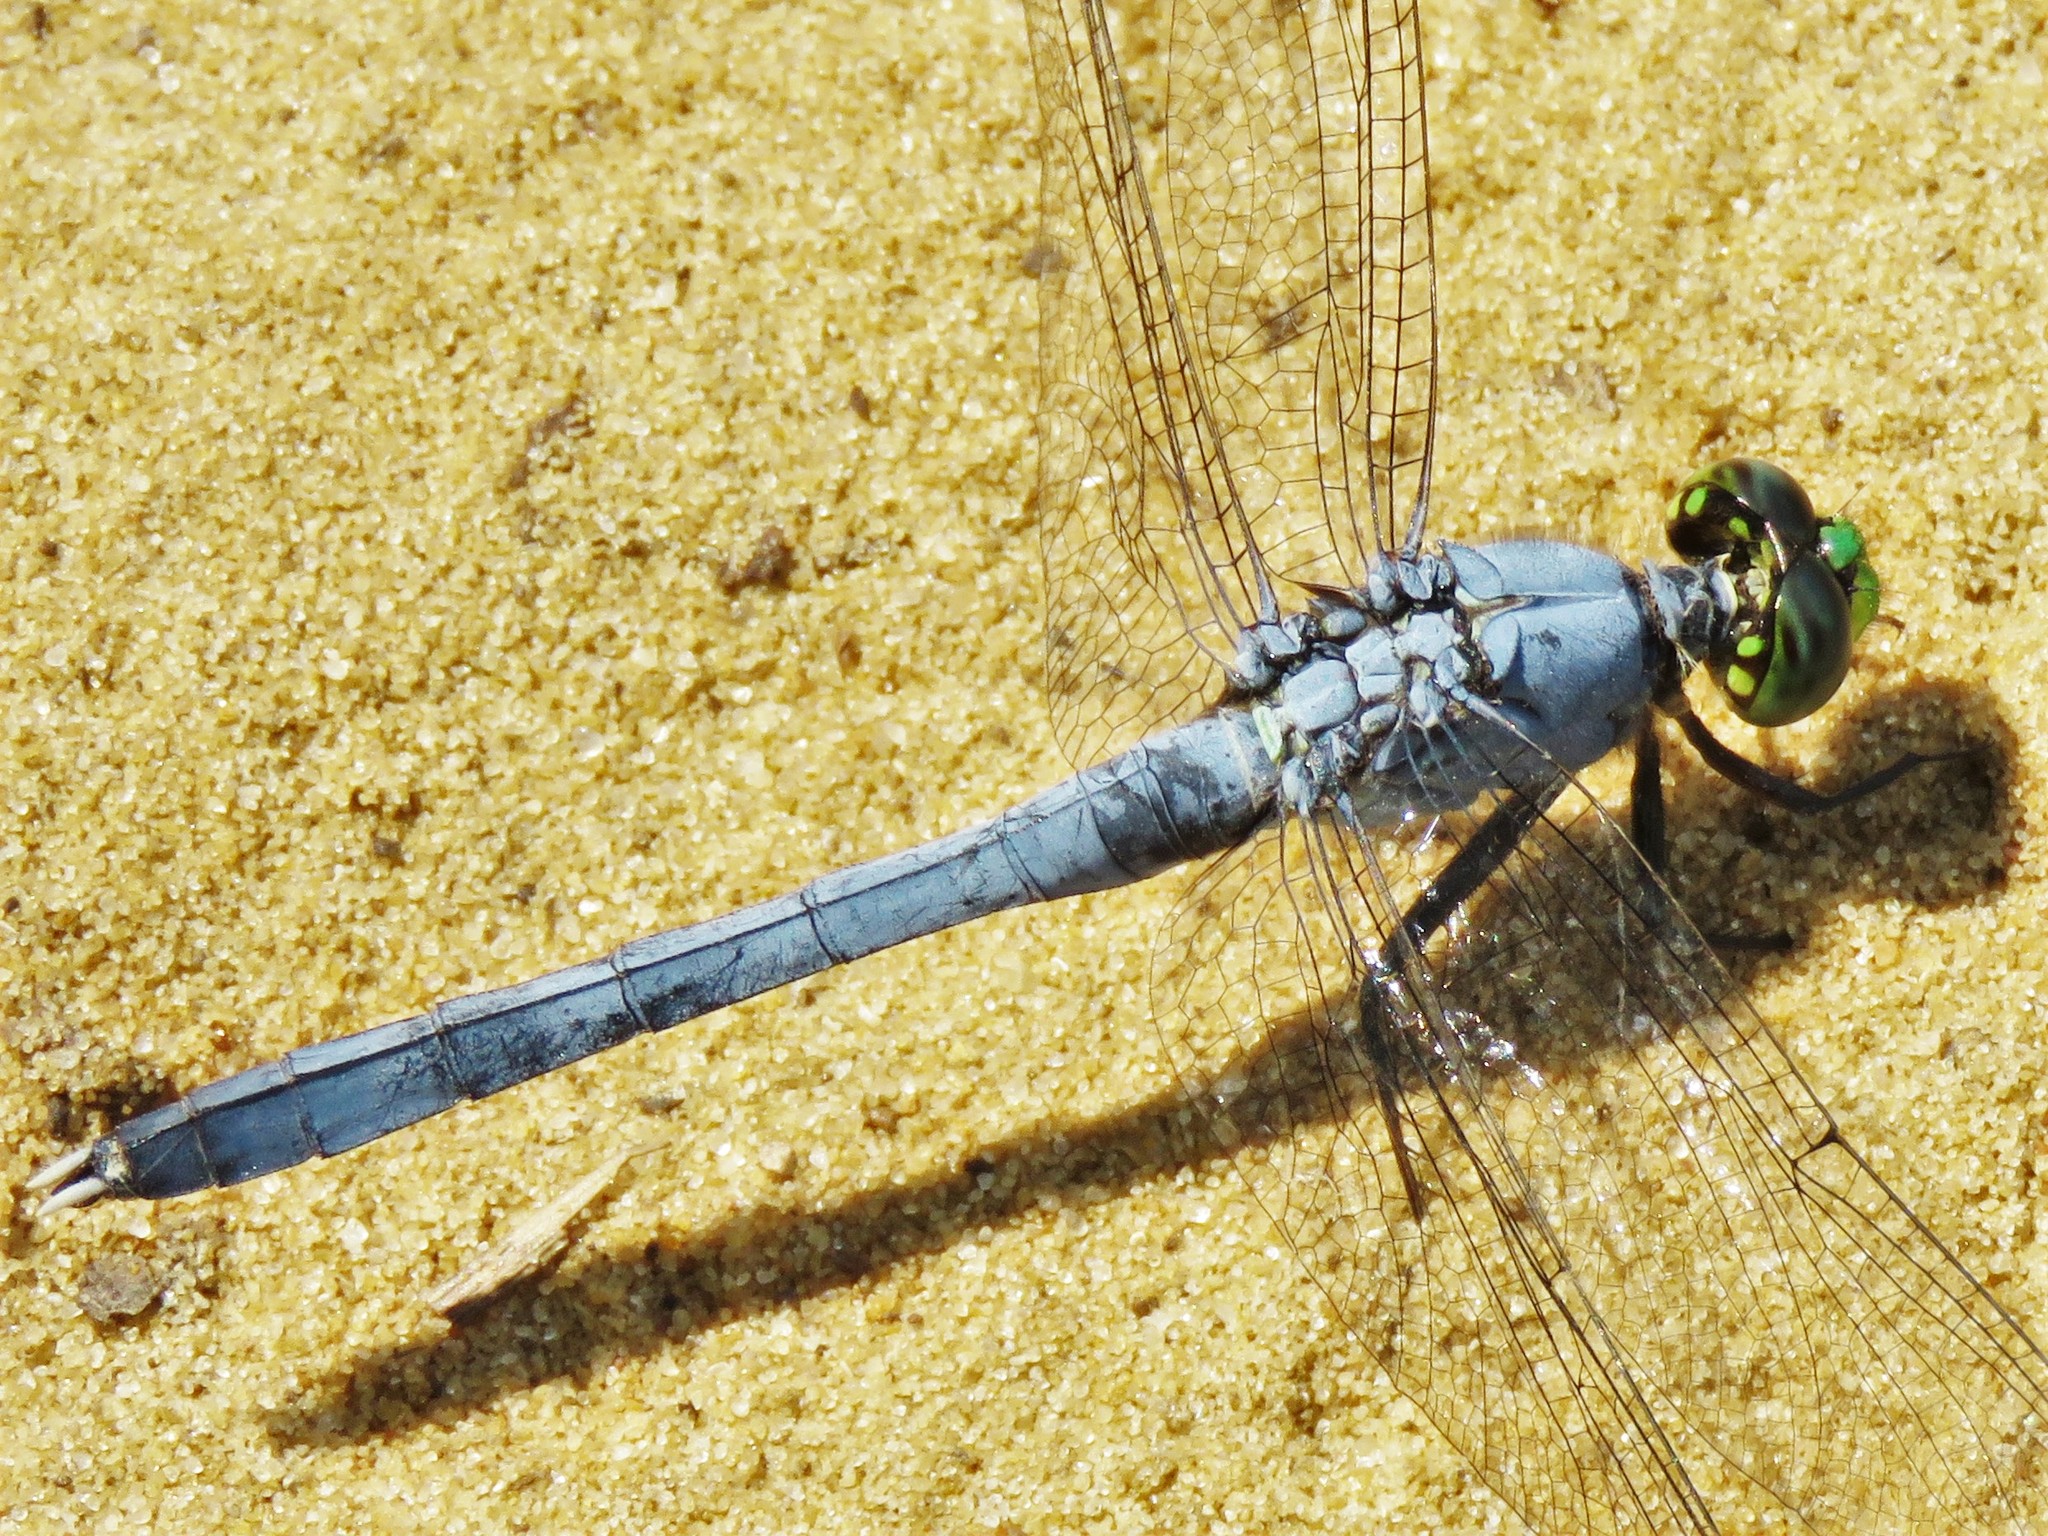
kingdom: Animalia
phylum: Arthropoda
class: Insecta
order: Odonata
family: Libellulidae
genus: Erythemis
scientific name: Erythemis simplicicollis
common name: Eastern pondhawk
